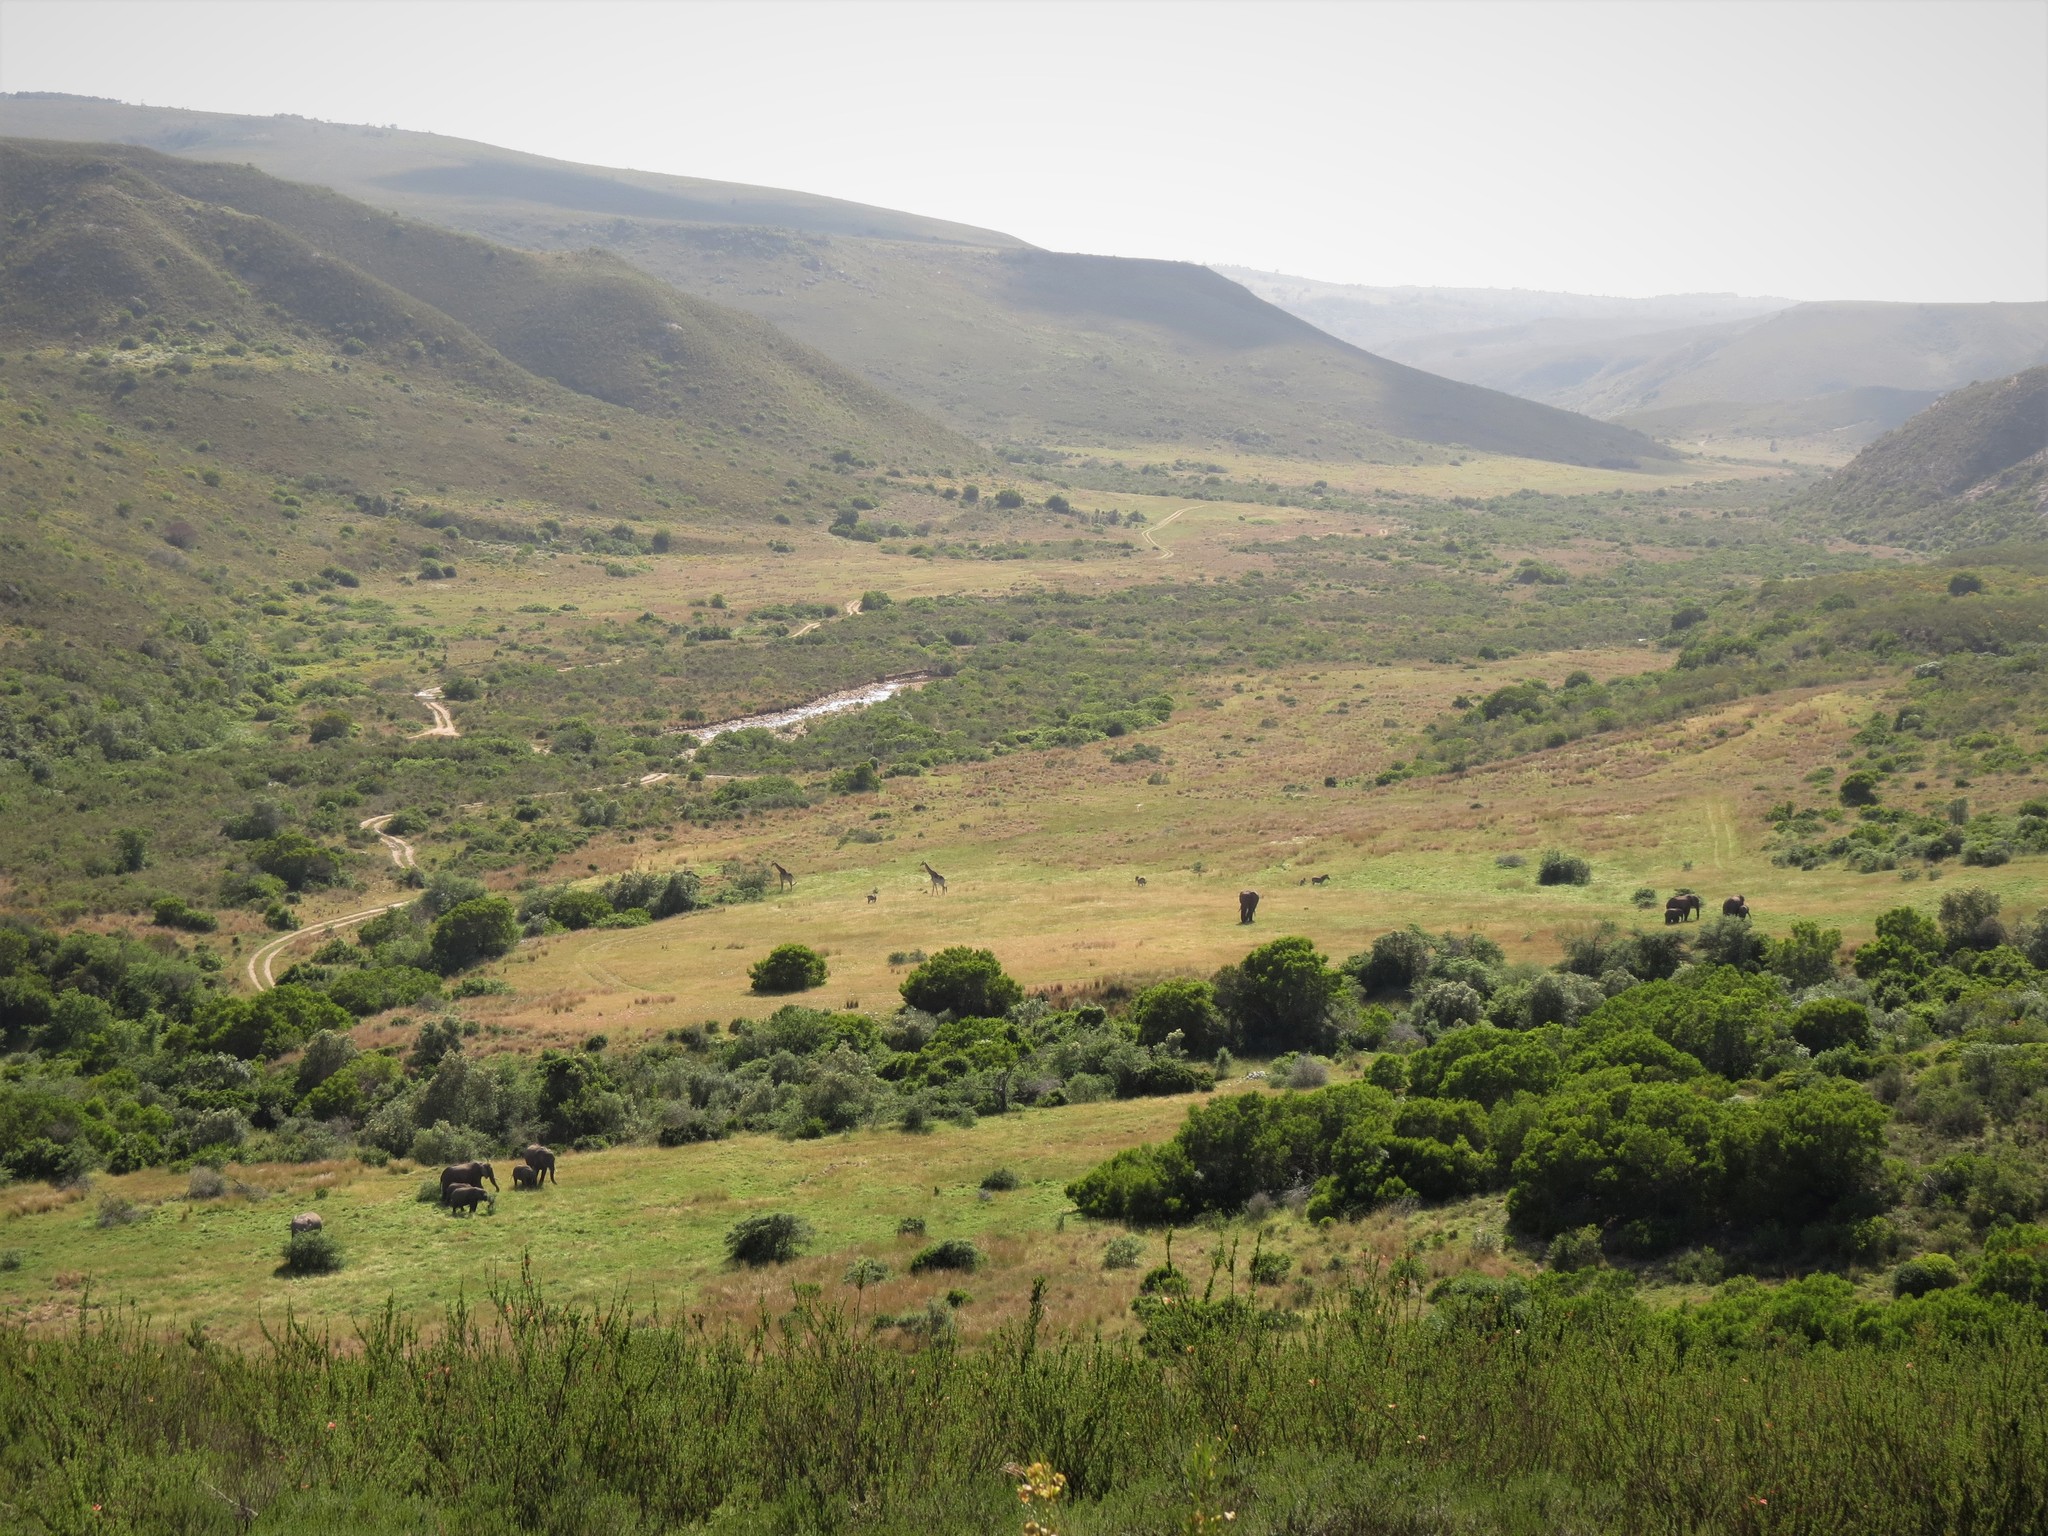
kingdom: Animalia
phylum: Chordata
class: Mammalia
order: Proboscidea
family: Elephantidae
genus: Loxodonta
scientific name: Loxodonta africana
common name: African elephant
